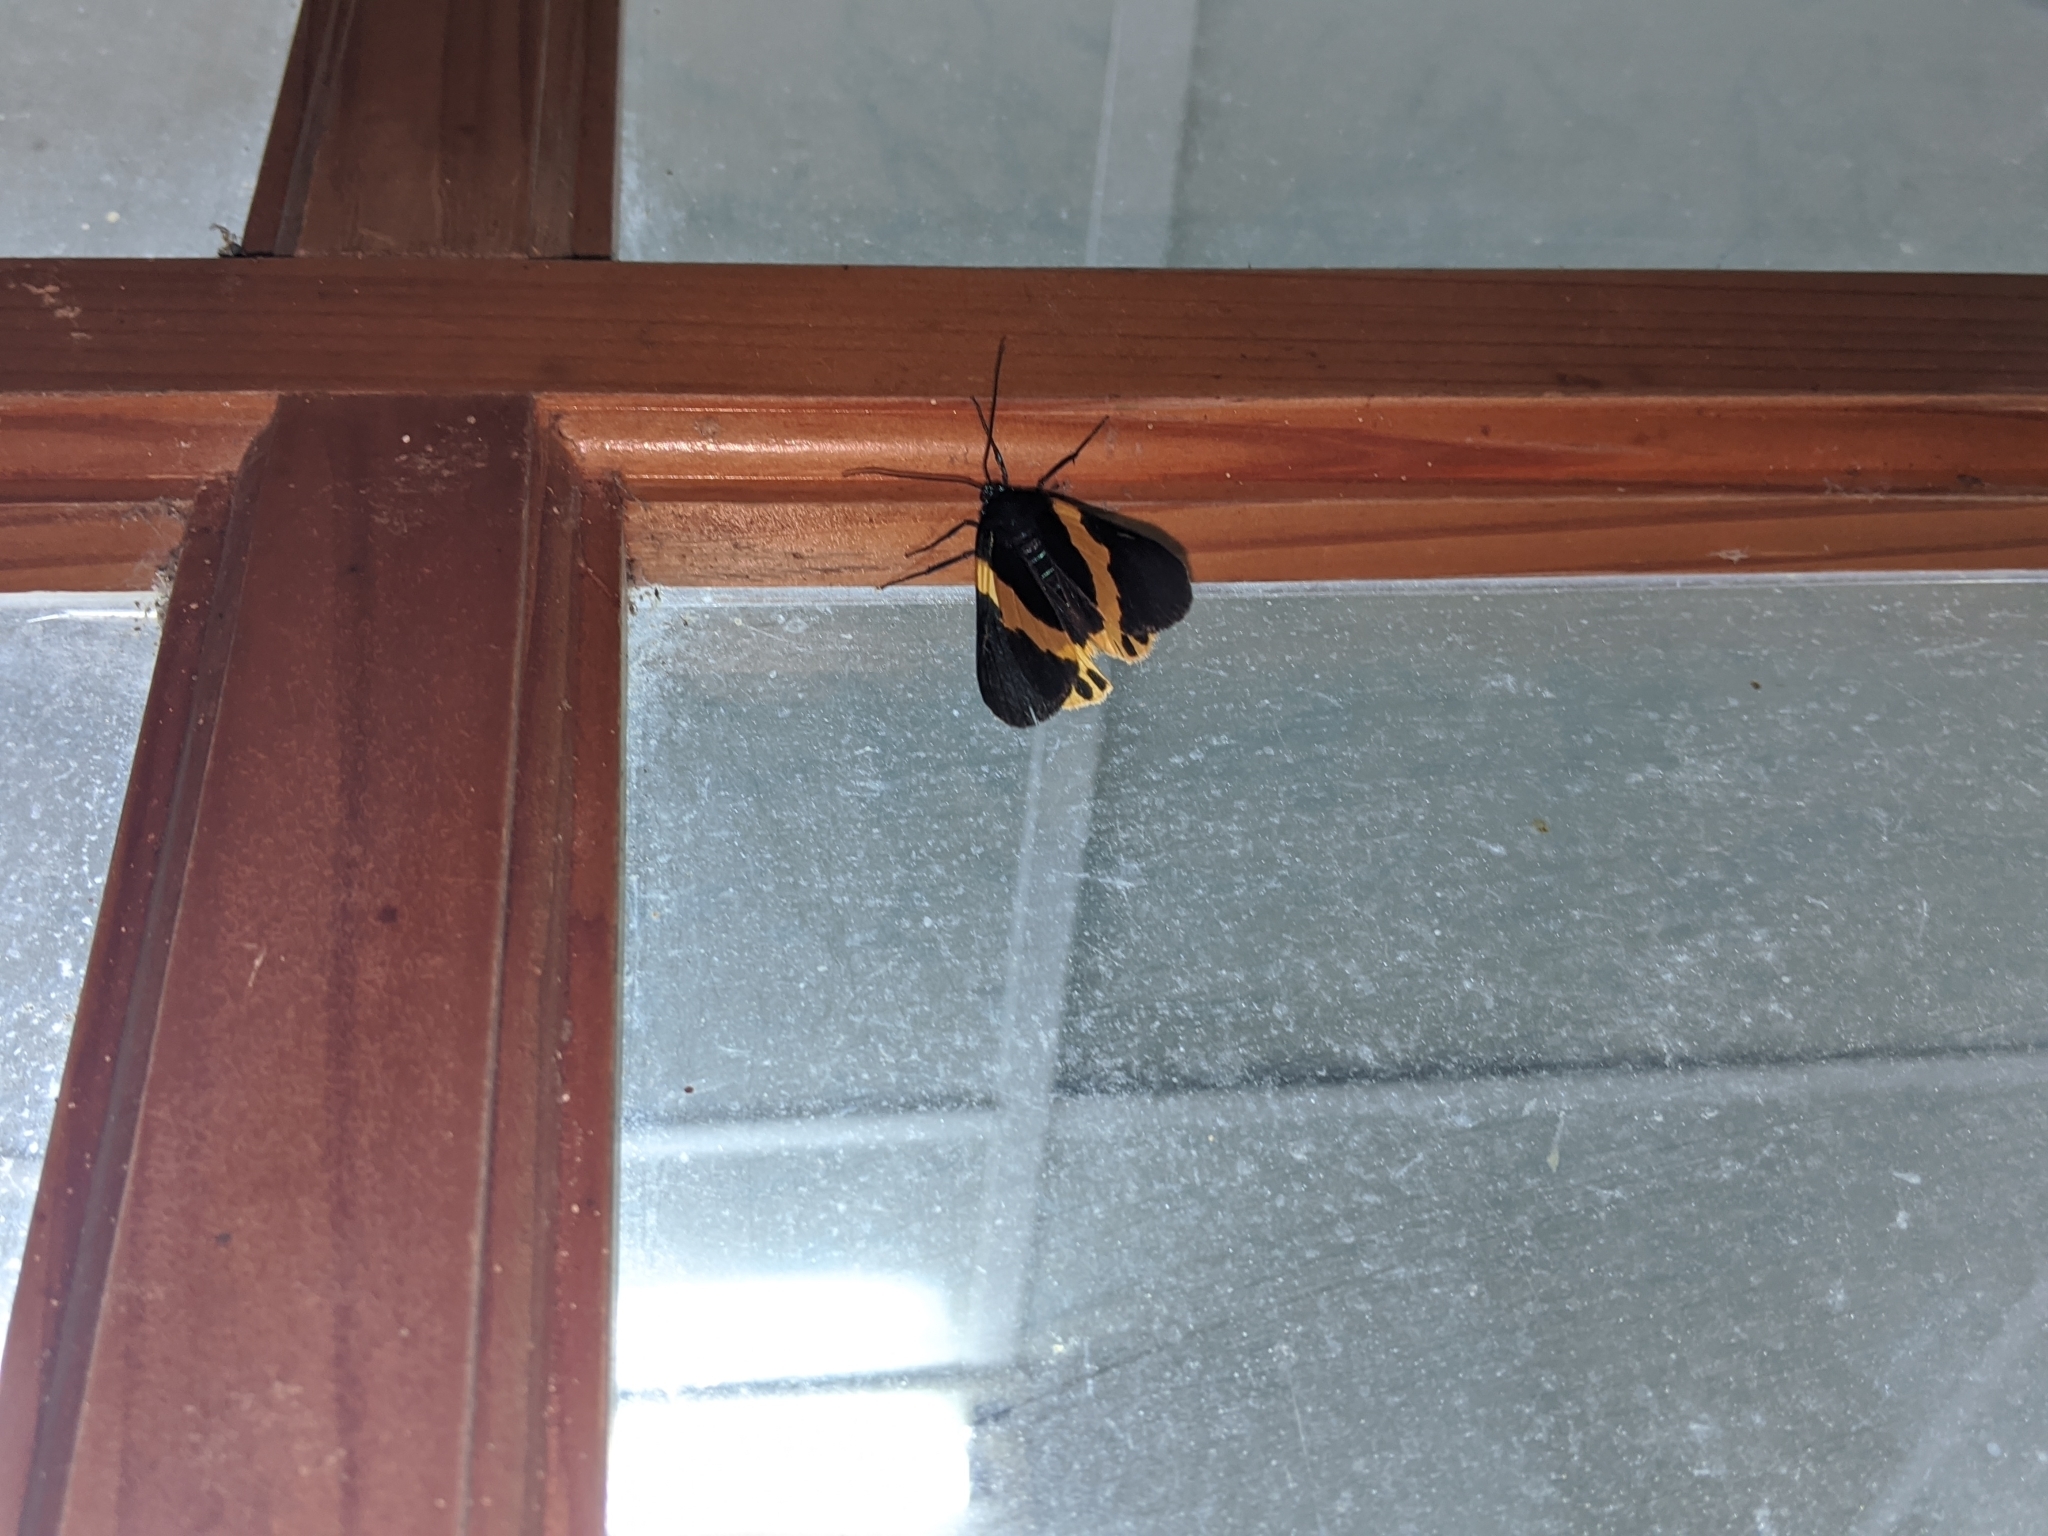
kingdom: Animalia
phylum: Arthropoda
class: Insecta
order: Lepidoptera
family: Geometridae
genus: Milionia
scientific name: Milionia basalis
